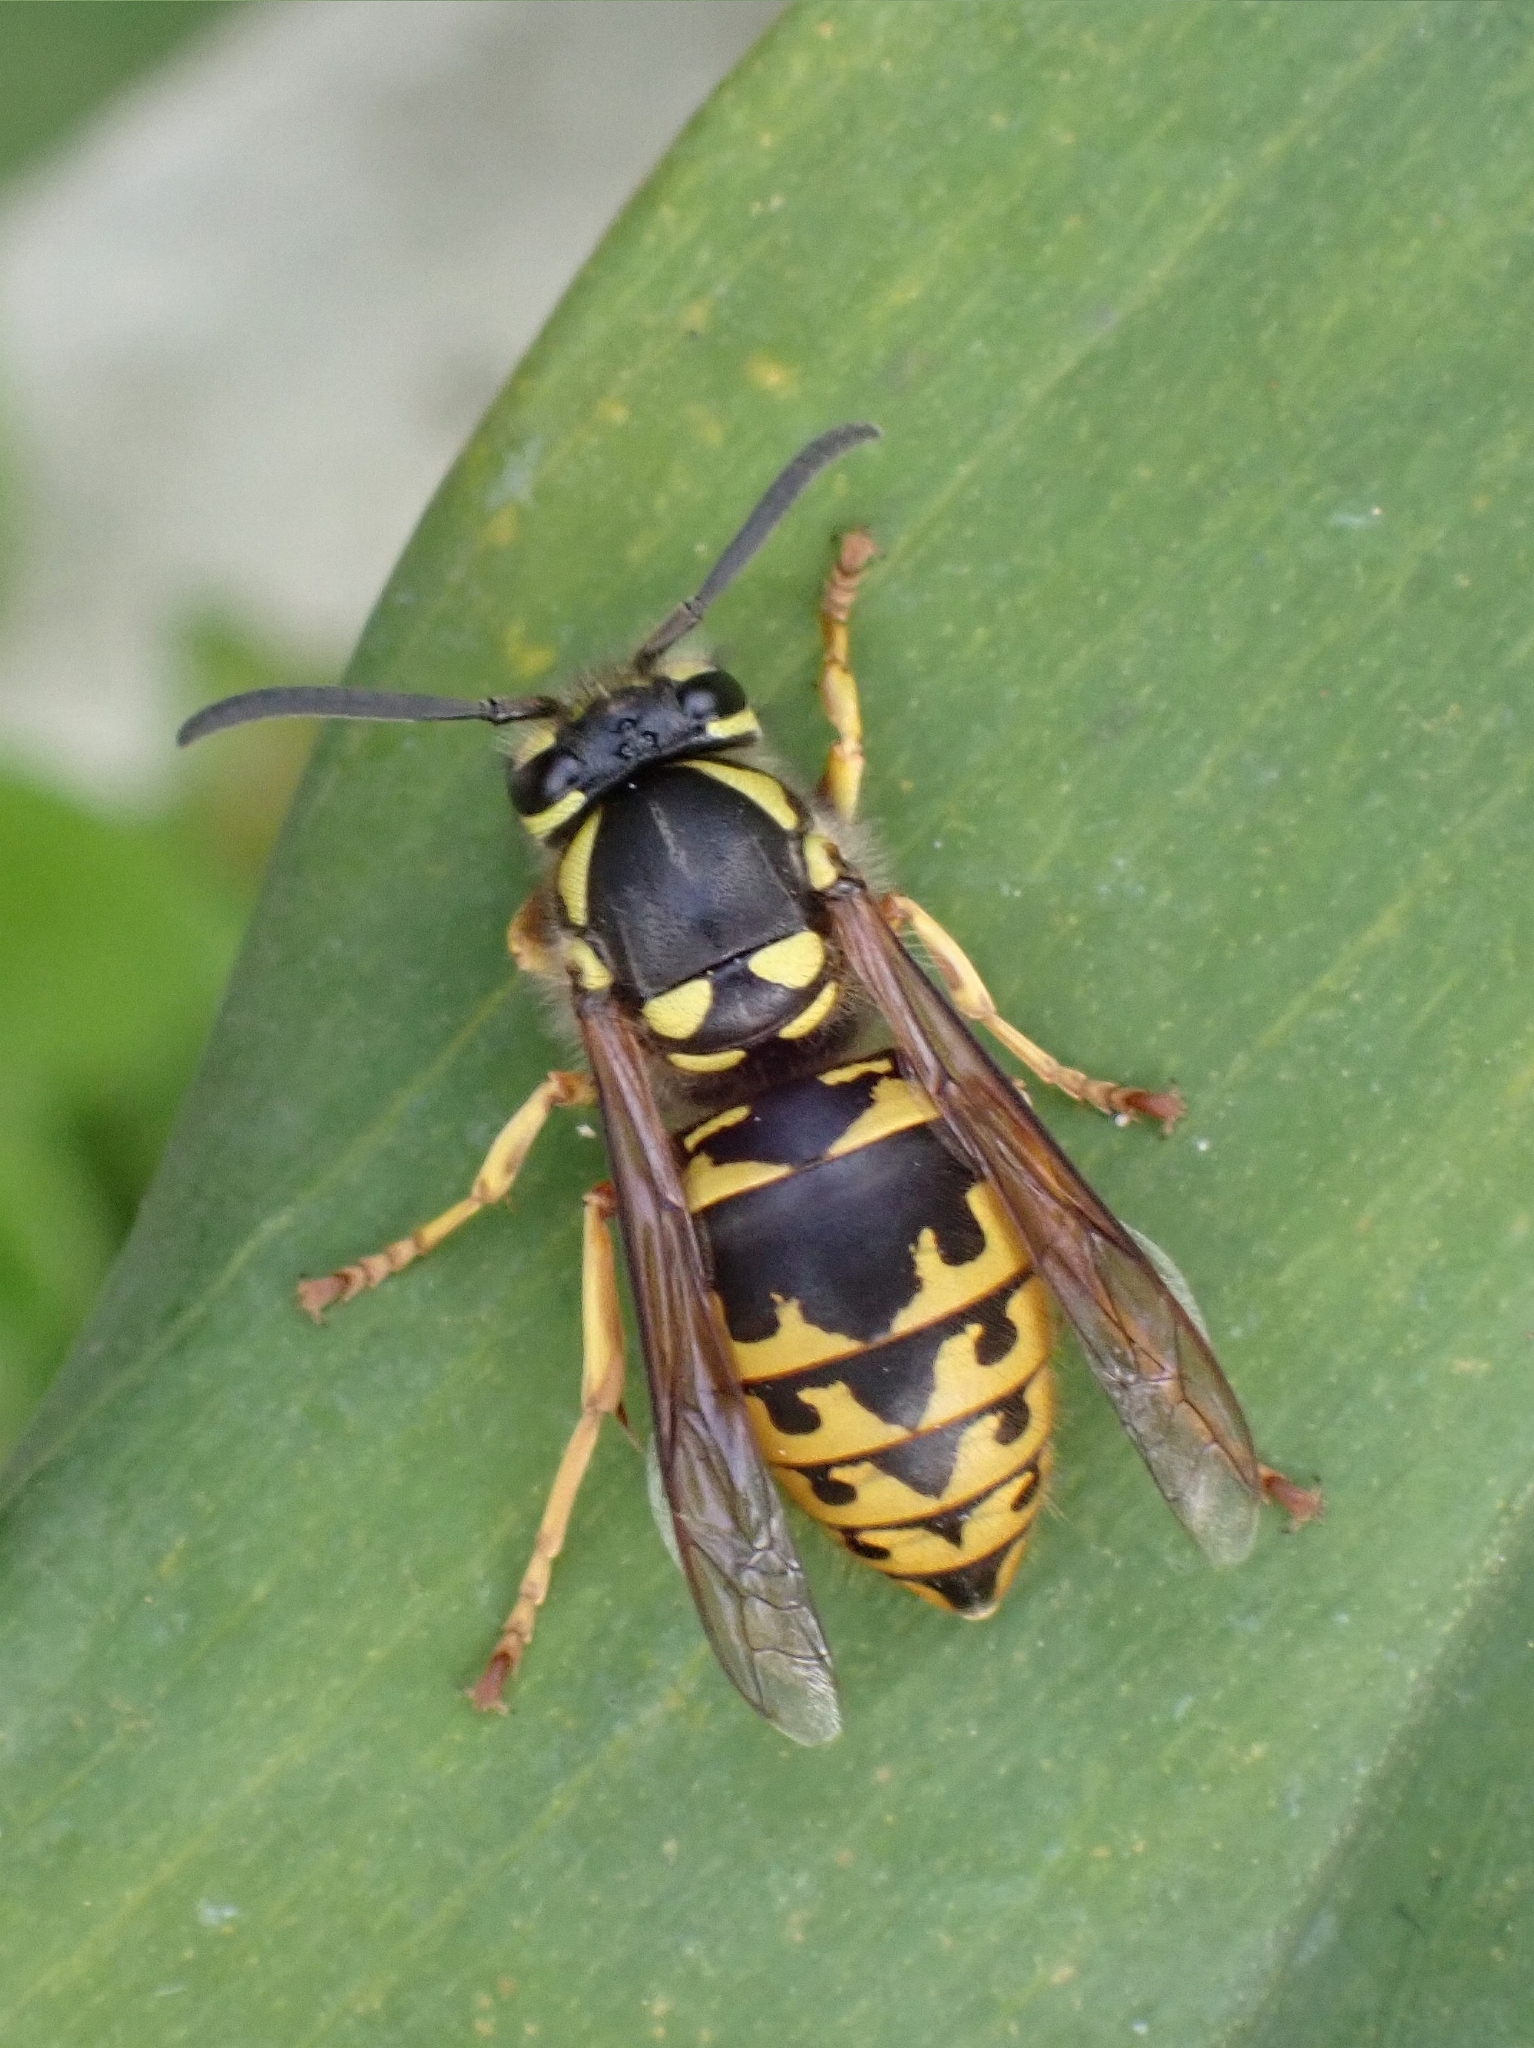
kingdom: Animalia
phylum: Arthropoda
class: Insecta
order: Hymenoptera
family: Vespidae
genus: Vespula
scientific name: Vespula germanica
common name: German wasp
